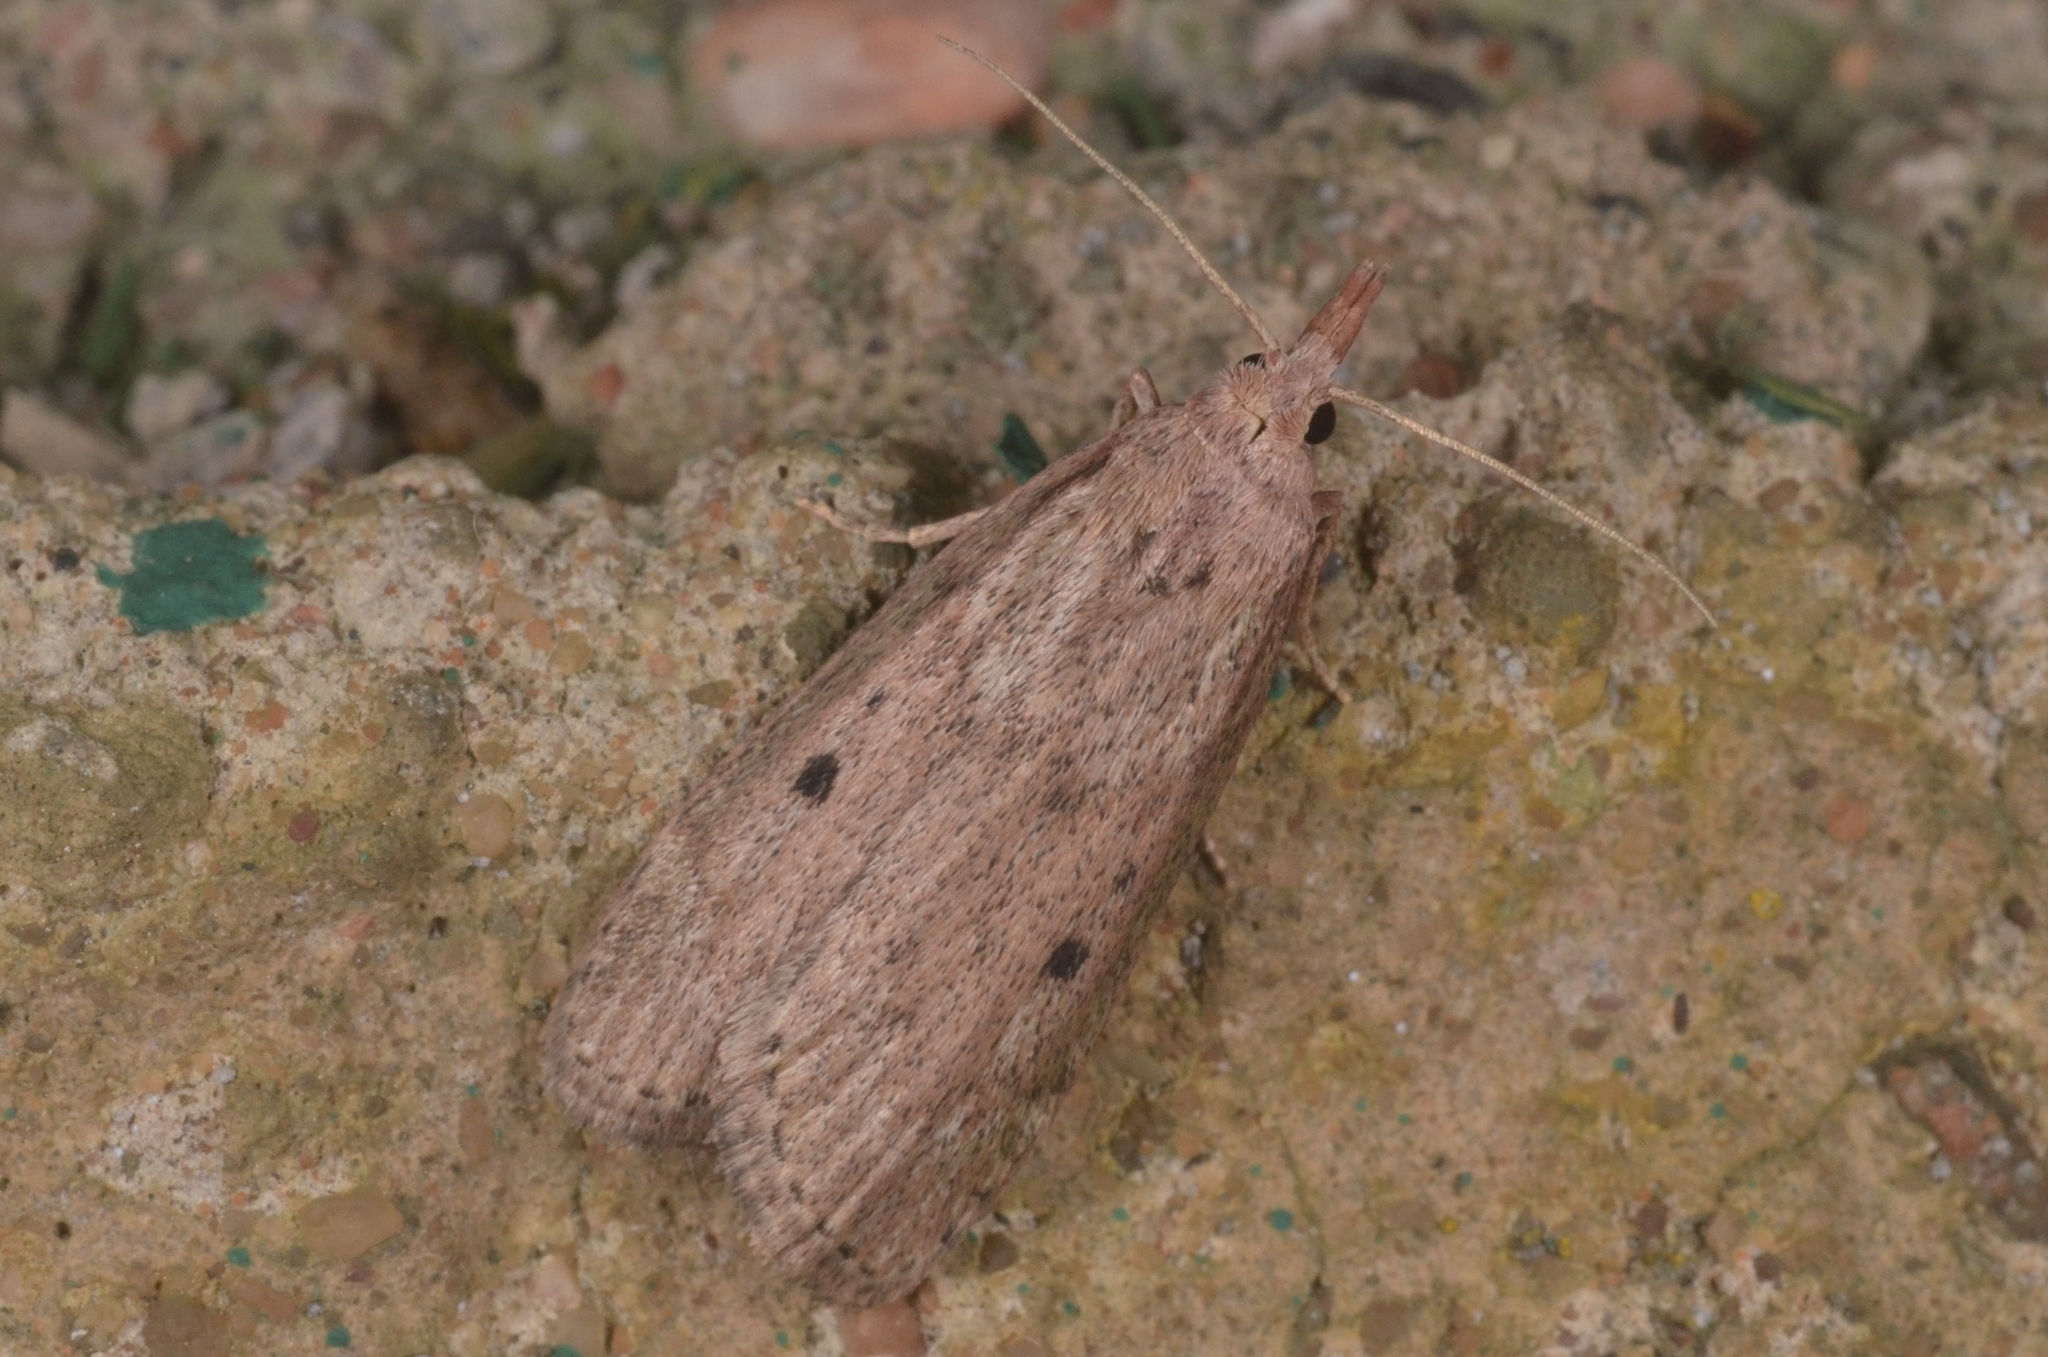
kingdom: Animalia
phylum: Arthropoda
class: Insecta
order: Lepidoptera
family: Pyralidae
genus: Aphomia
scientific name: Aphomia sociella
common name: Bee moth
